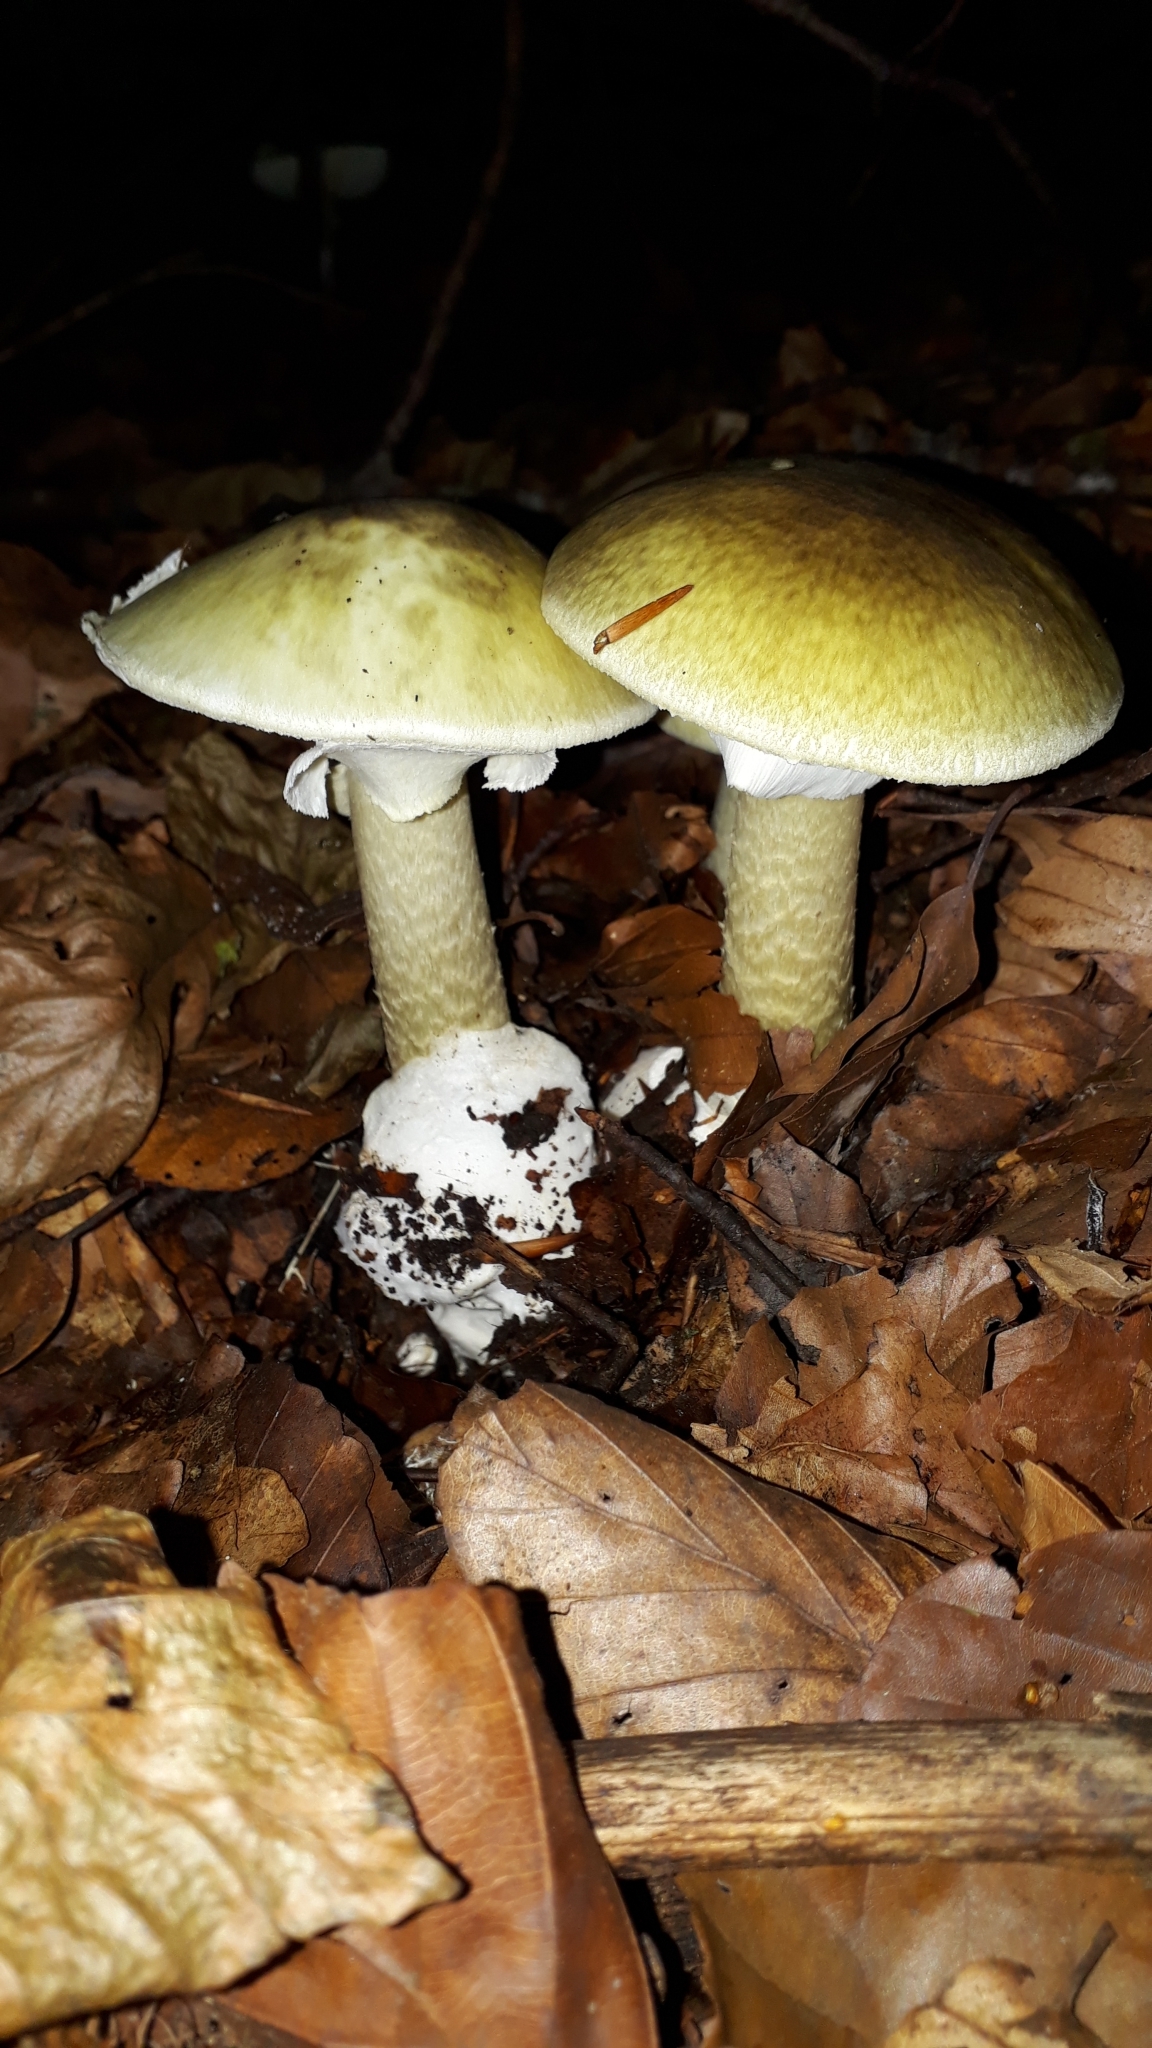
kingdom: Fungi
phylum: Basidiomycota
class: Agaricomycetes
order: Agaricales
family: Amanitaceae
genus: Amanita
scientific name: Amanita phalloides
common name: Death cap
